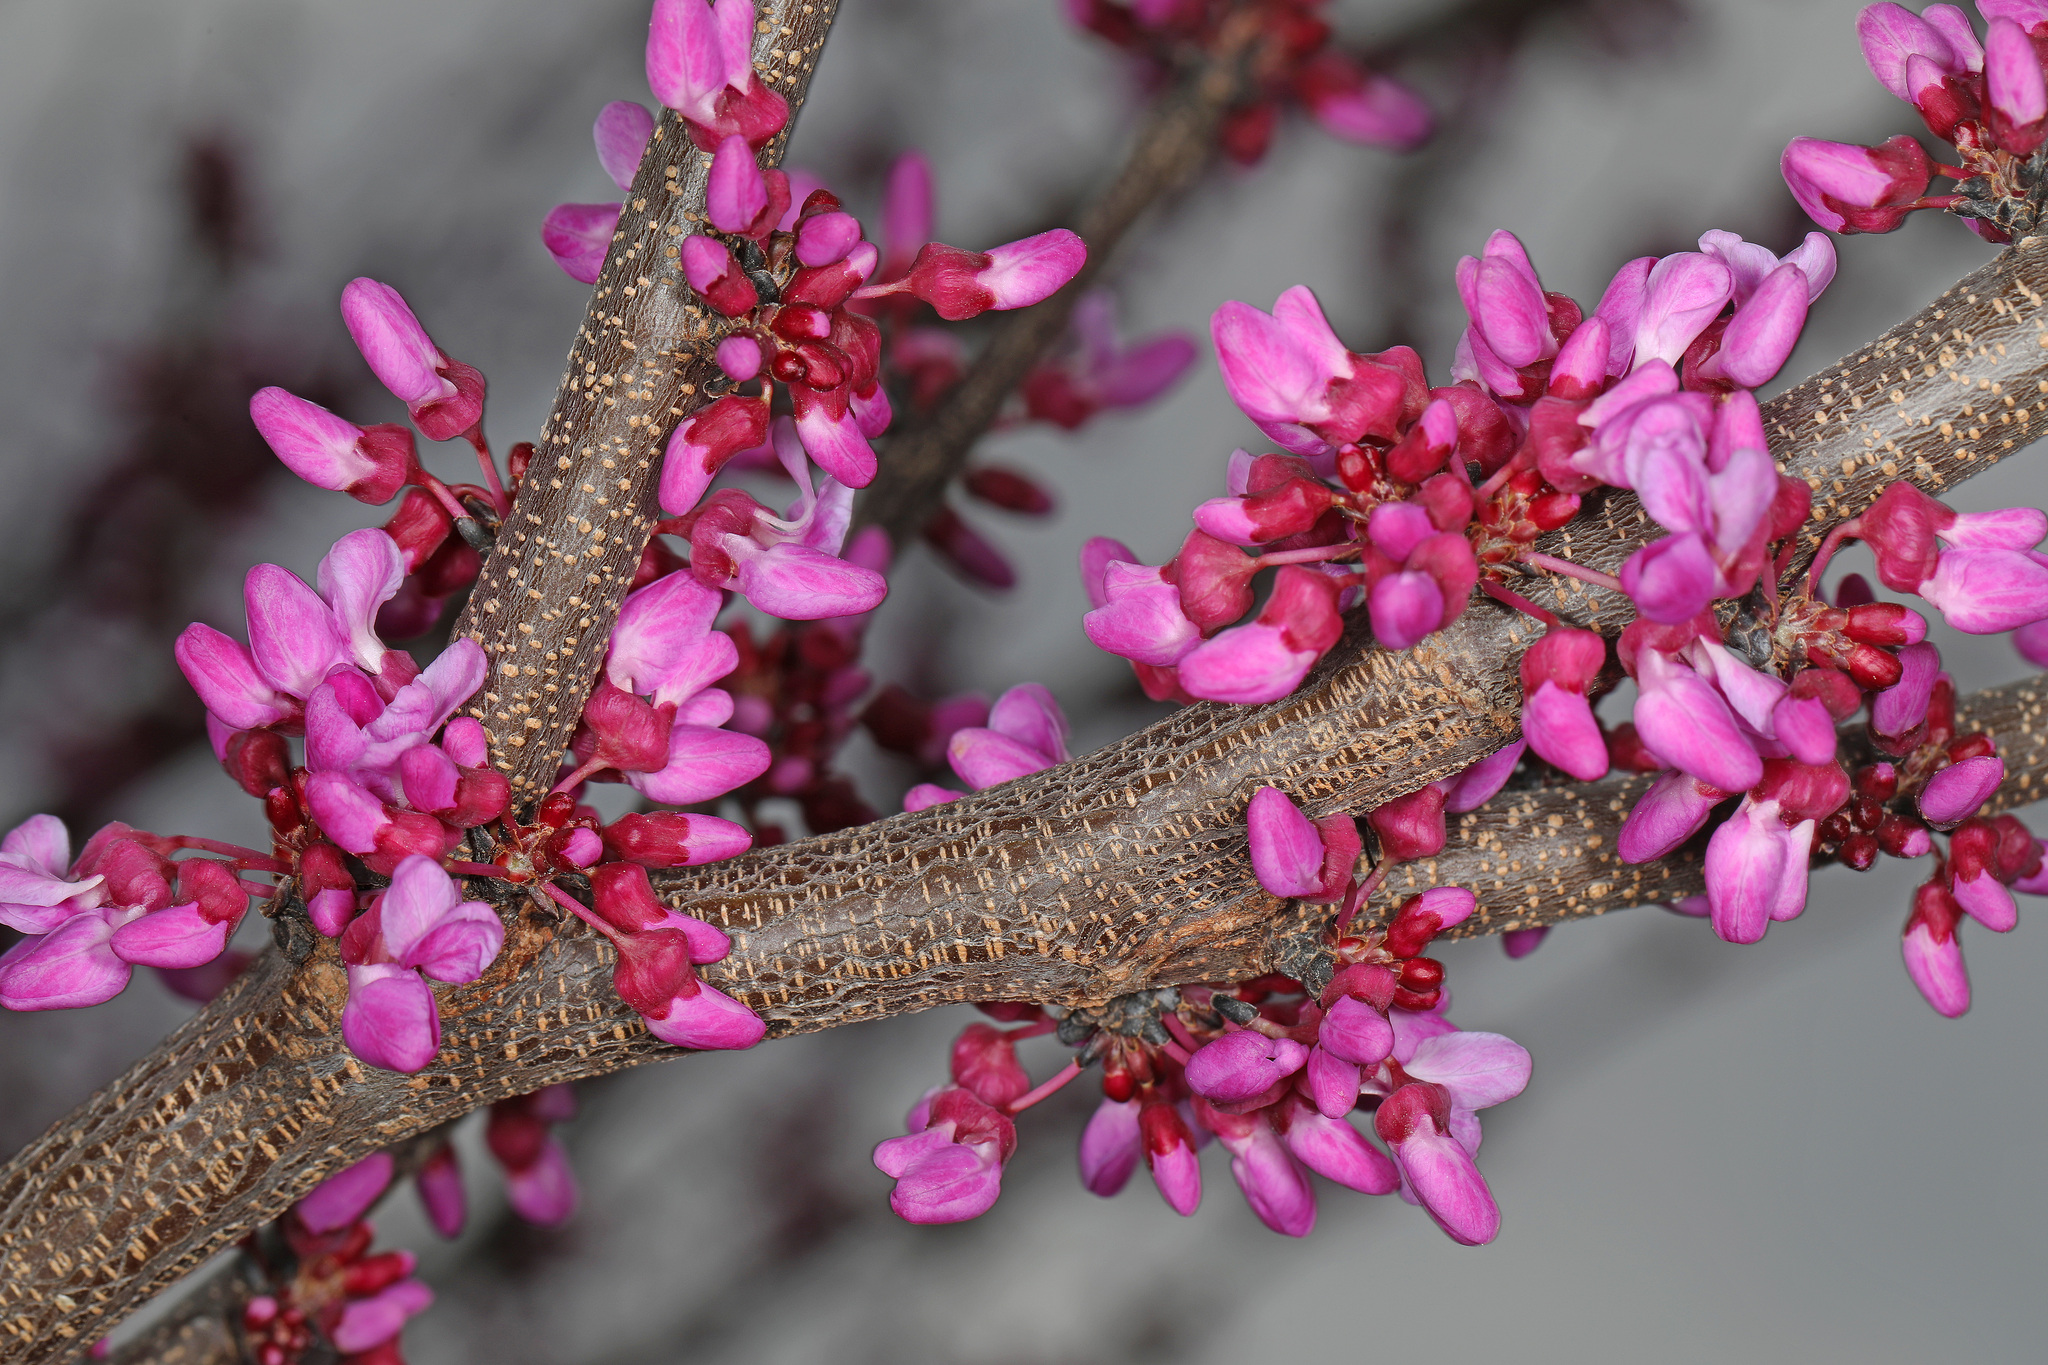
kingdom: Plantae
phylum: Tracheophyta
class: Magnoliopsida
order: Fabales
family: Fabaceae
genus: Cercis
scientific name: Cercis canadensis
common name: Eastern redbud
